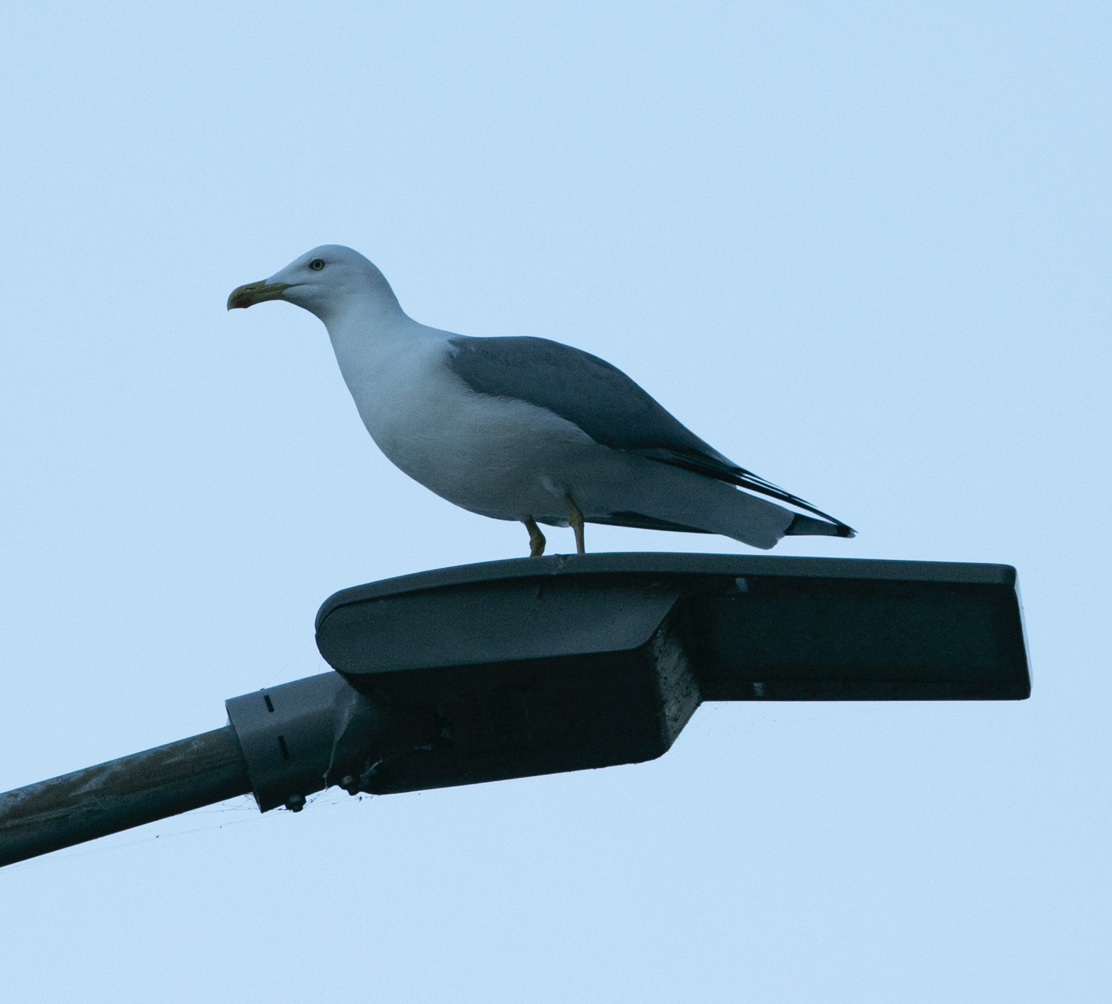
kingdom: Animalia
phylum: Chordata
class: Aves
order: Charadriiformes
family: Laridae
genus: Larus
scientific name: Larus michahellis
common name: Yellow-legged gull
